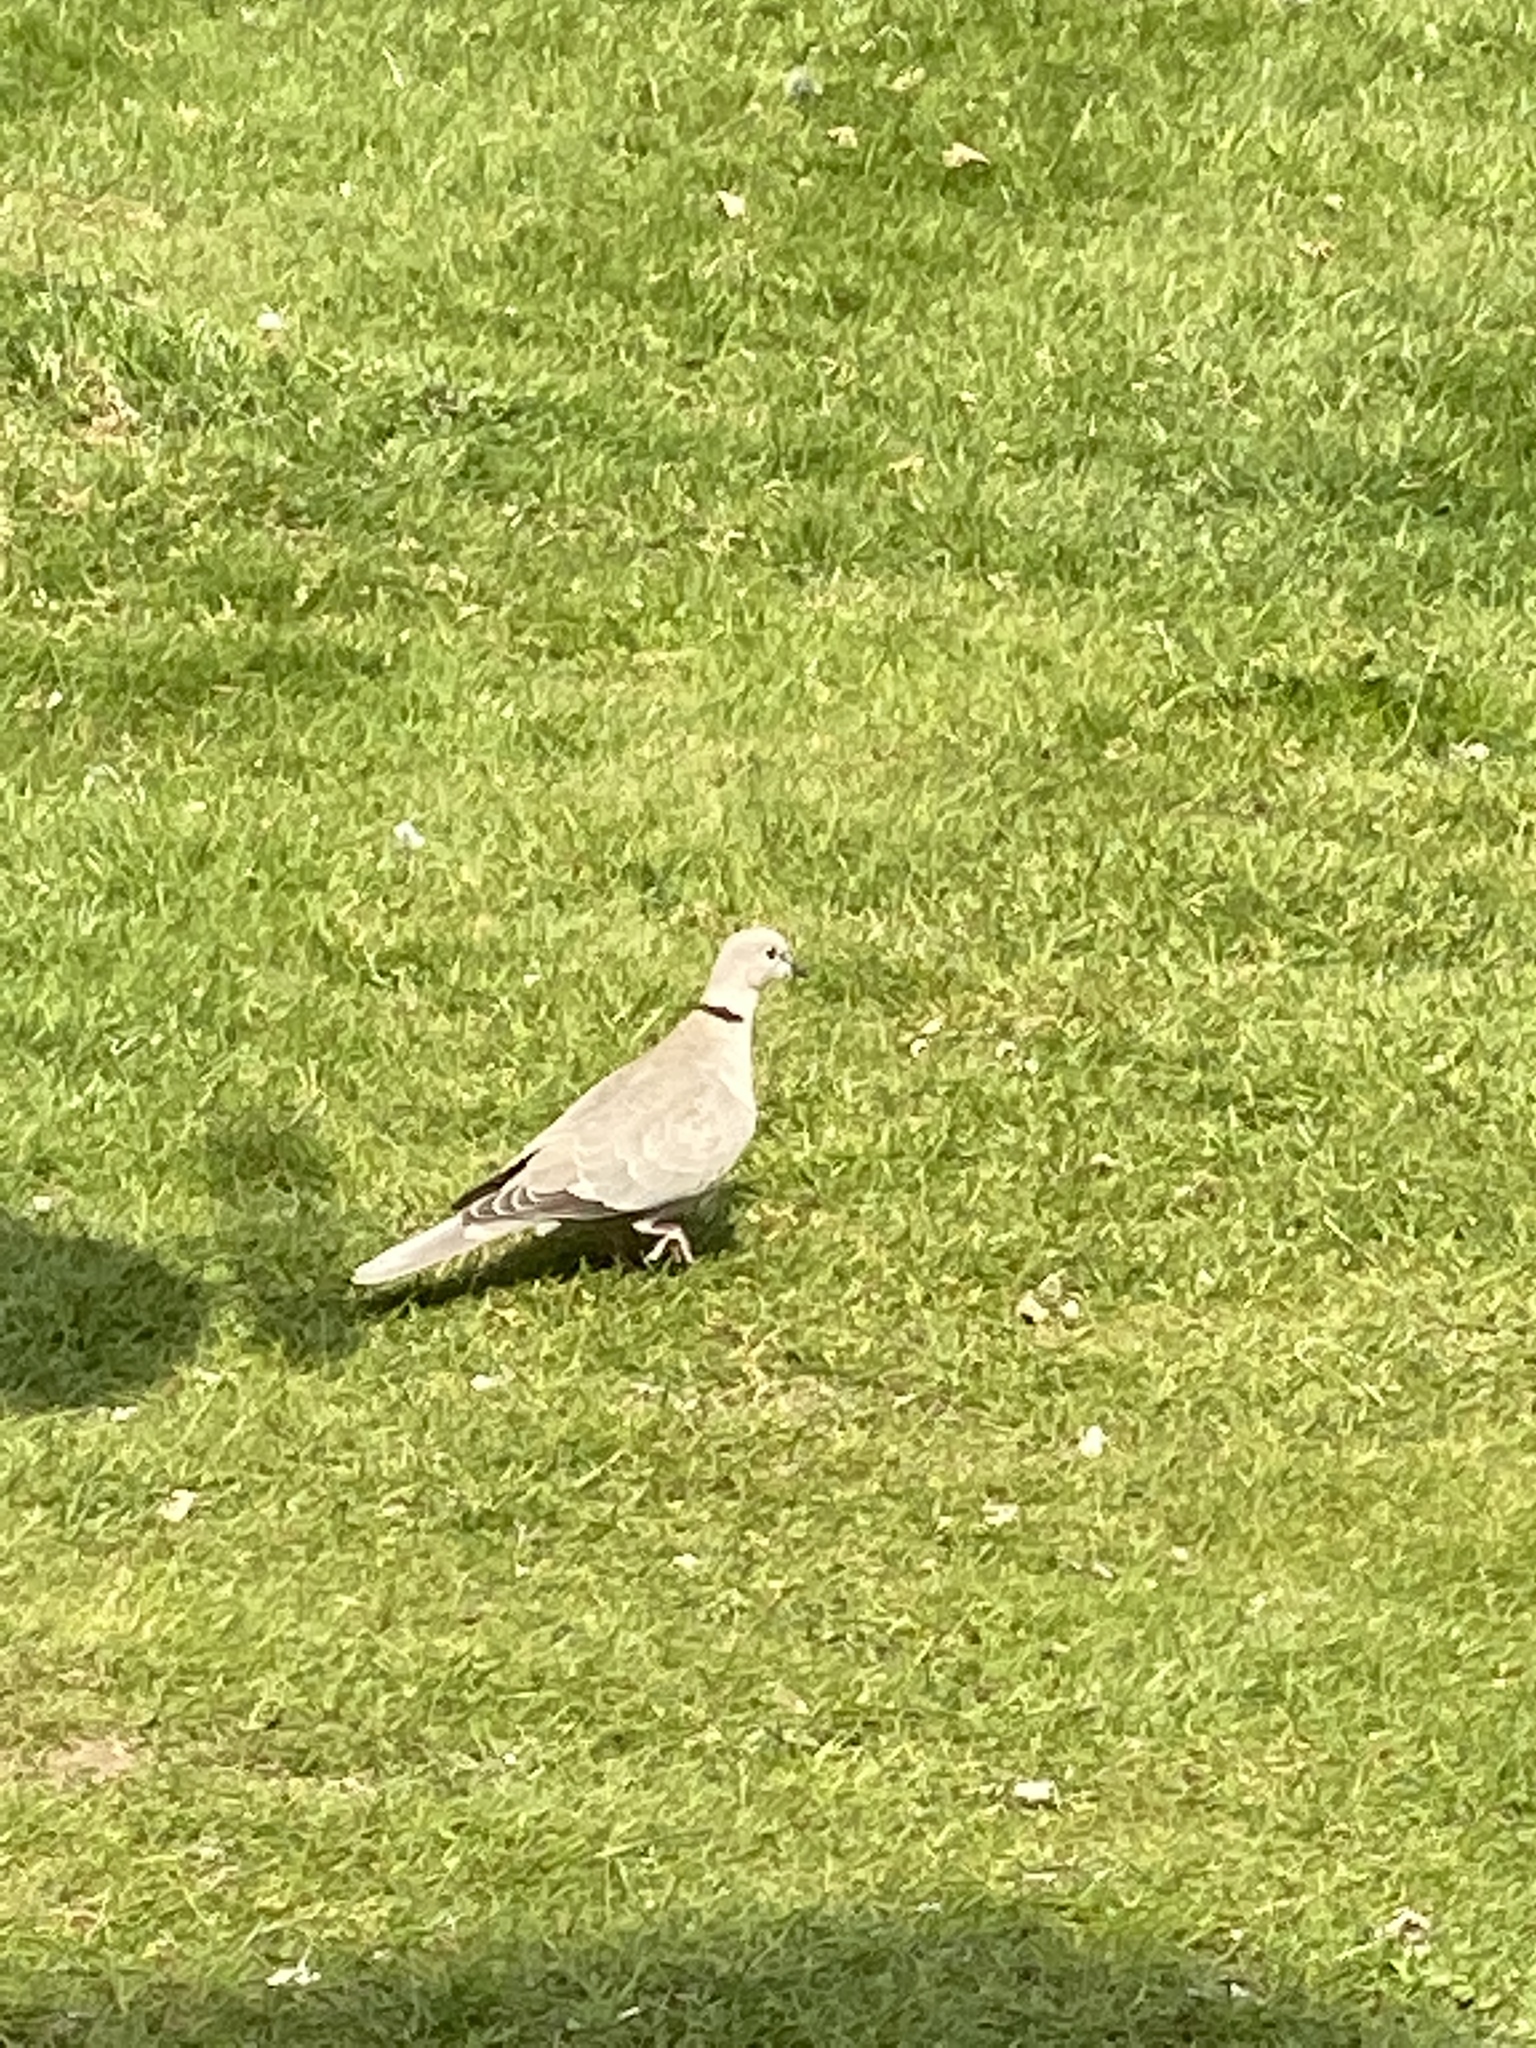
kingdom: Animalia
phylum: Chordata
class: Aves
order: Columbiformes
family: Columbidae
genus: Streptopelia
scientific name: Streptopelia decaocto
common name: Eurasian collared dove
